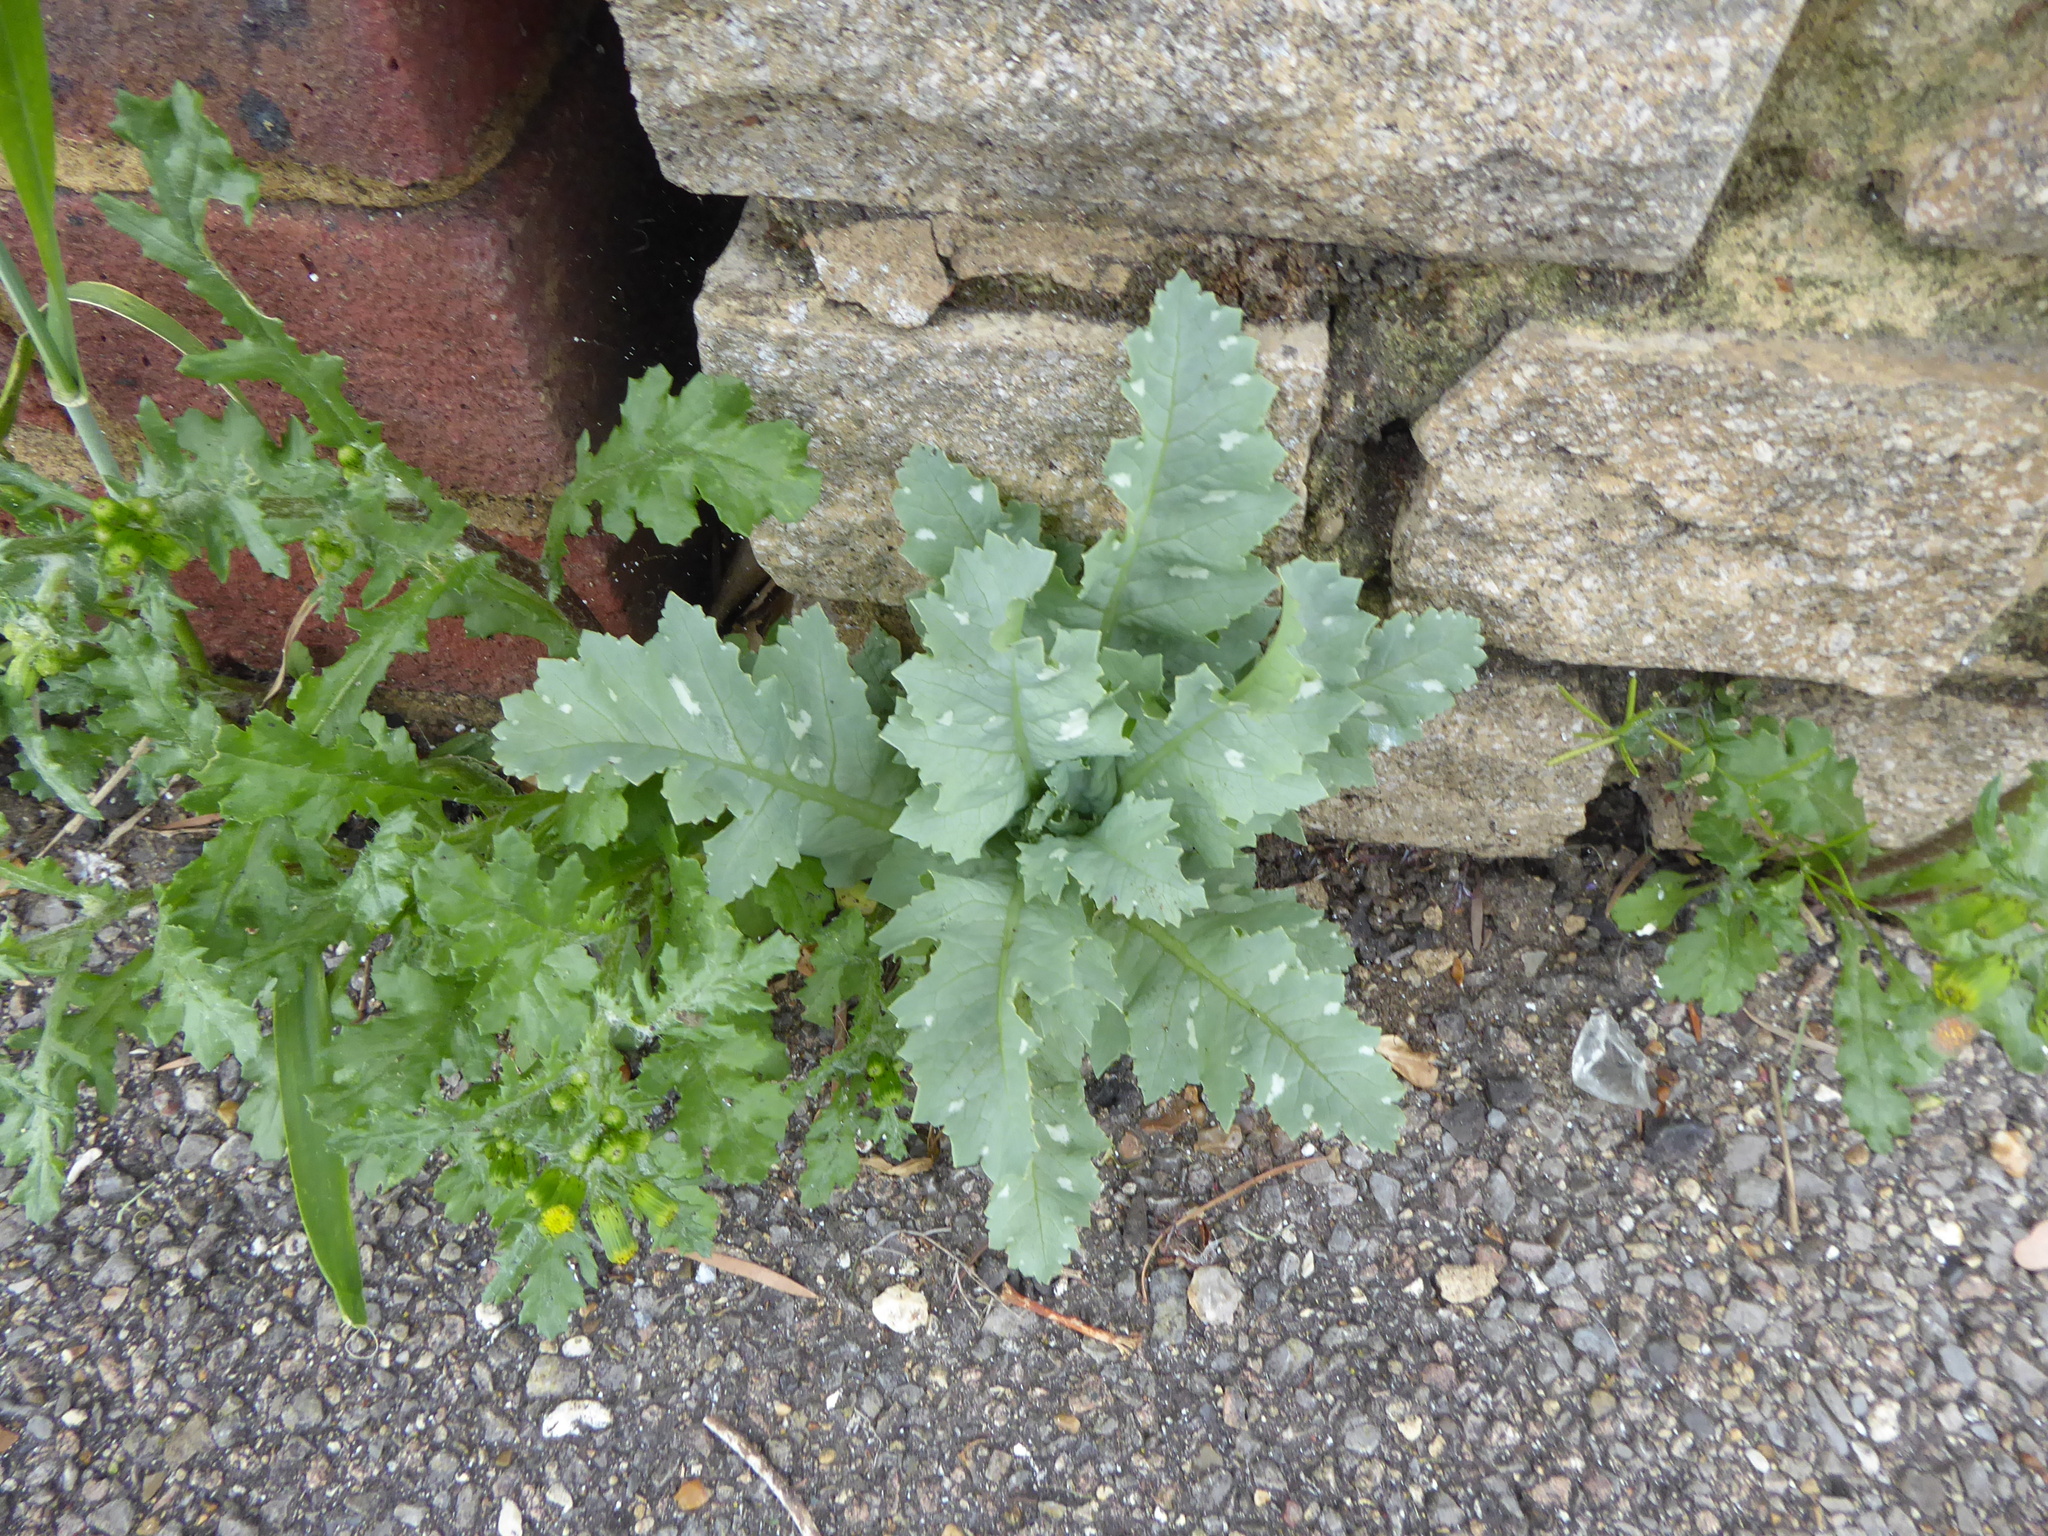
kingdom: Plantae
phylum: Tracheophyta
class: Magnoliopsida
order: Ranunculales
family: Papaveraceae
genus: Papaver
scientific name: Papaver somniferum
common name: Opium poppy
